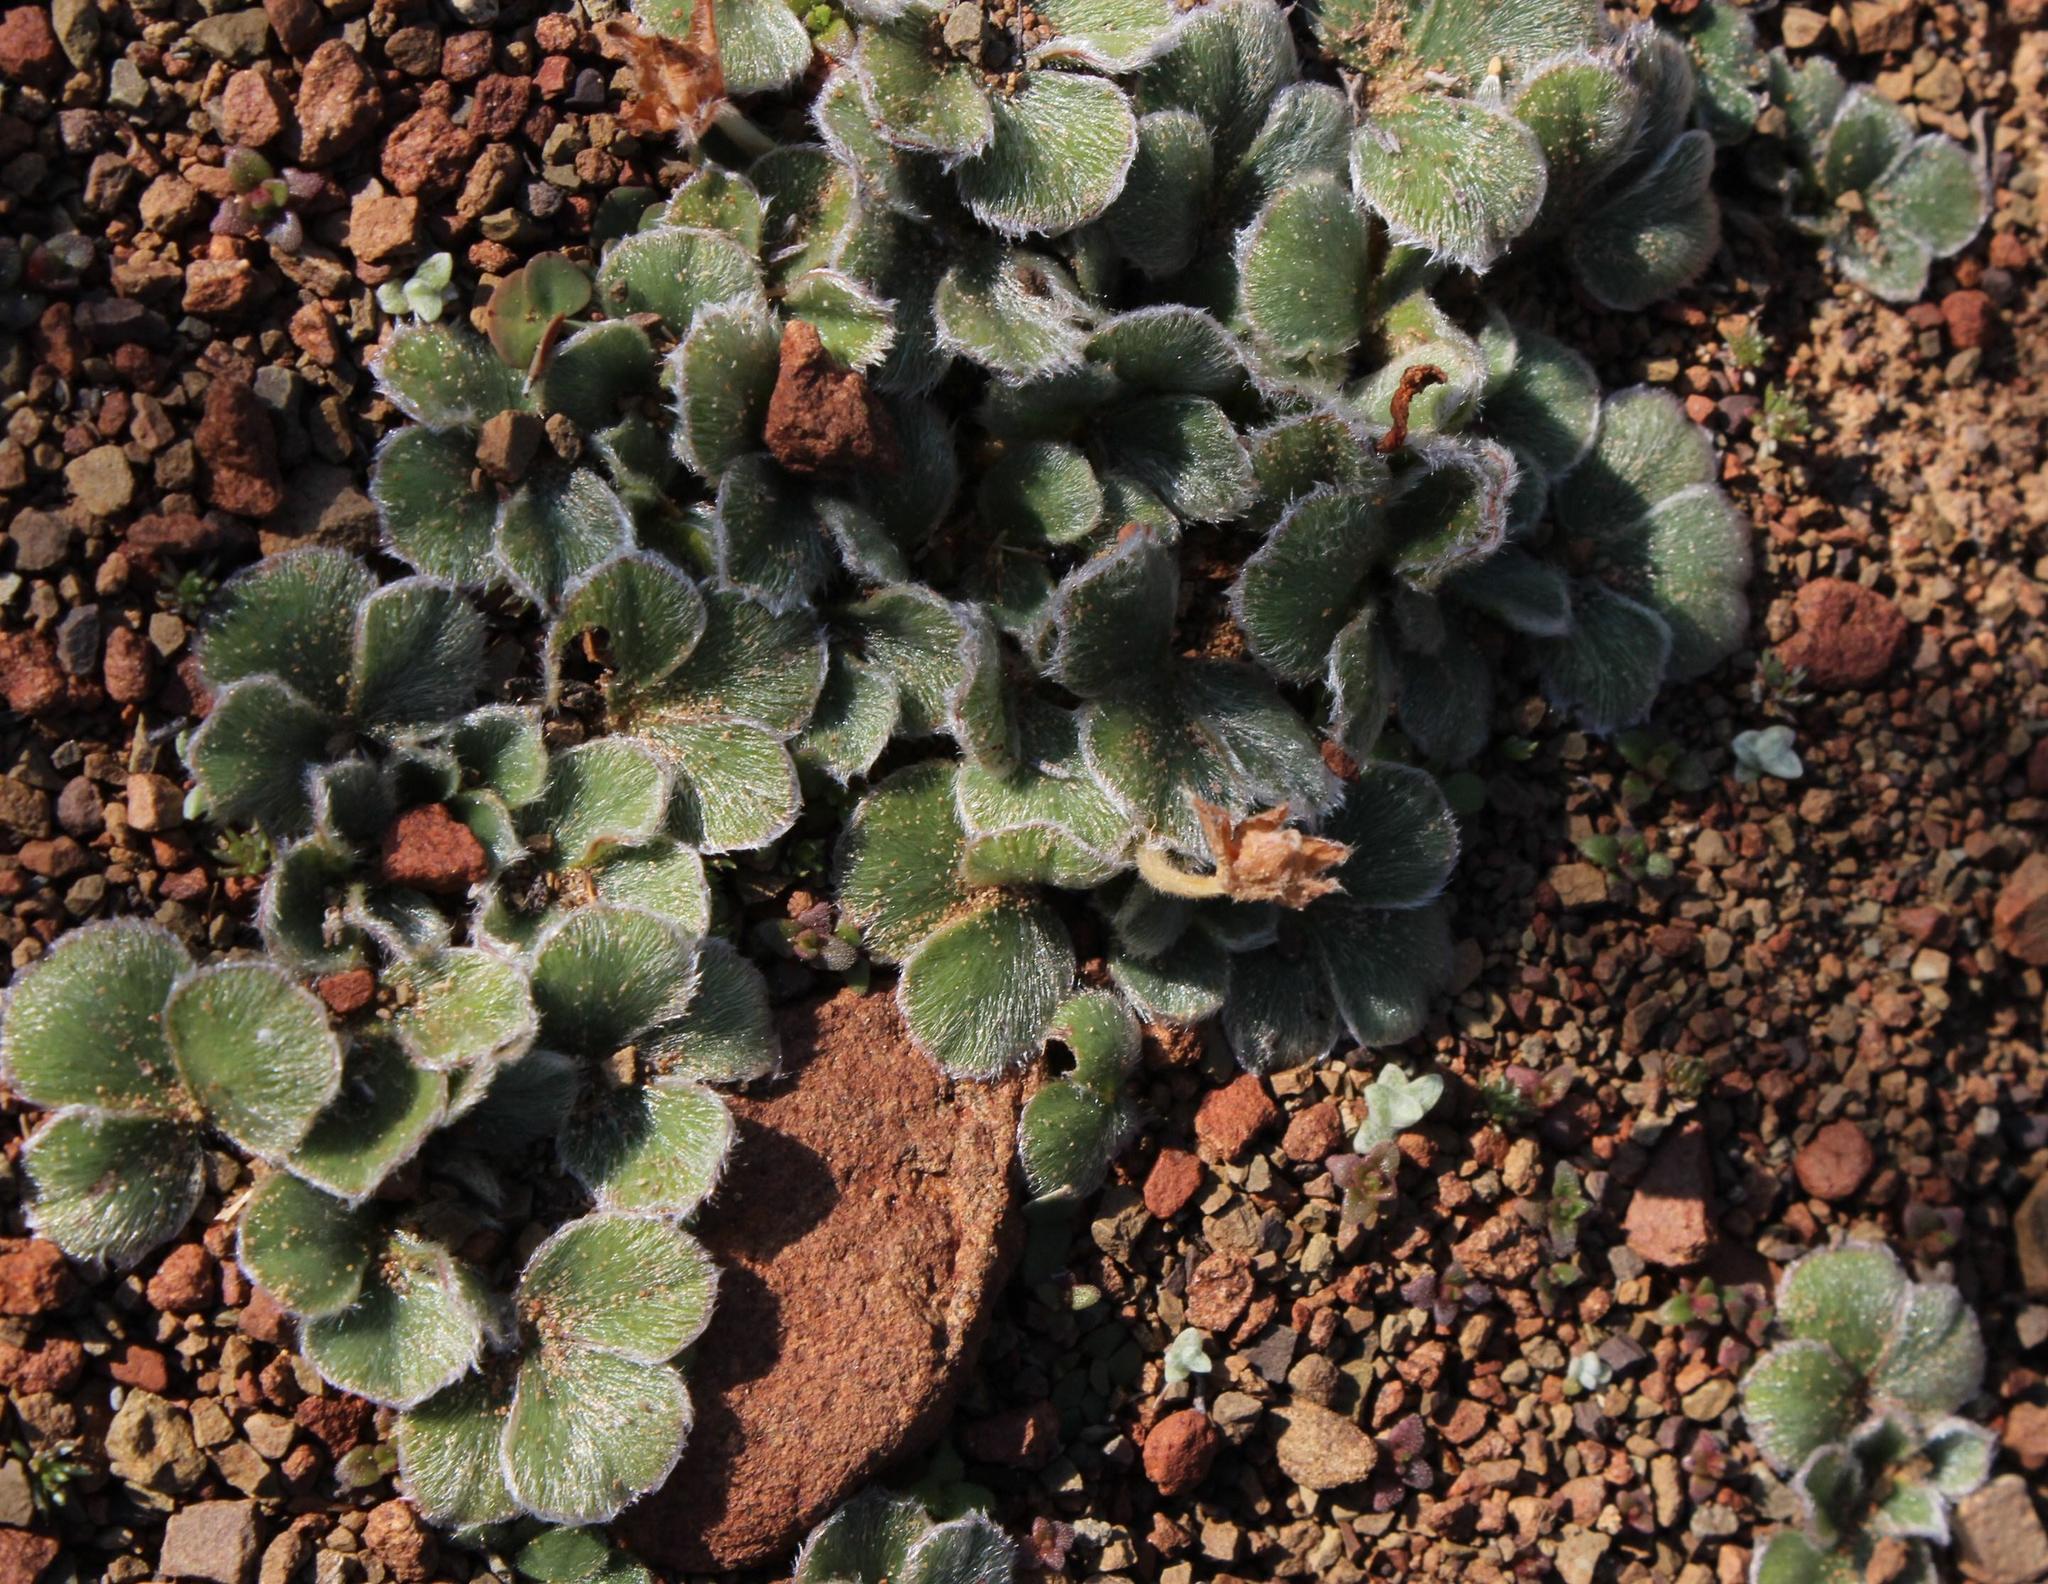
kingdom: Plantae
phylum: Tracheophyta
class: Magnoliopsida
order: Oxalidales
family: Oxalidaceae
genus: Oxalis
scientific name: Oxalis melanosticta
